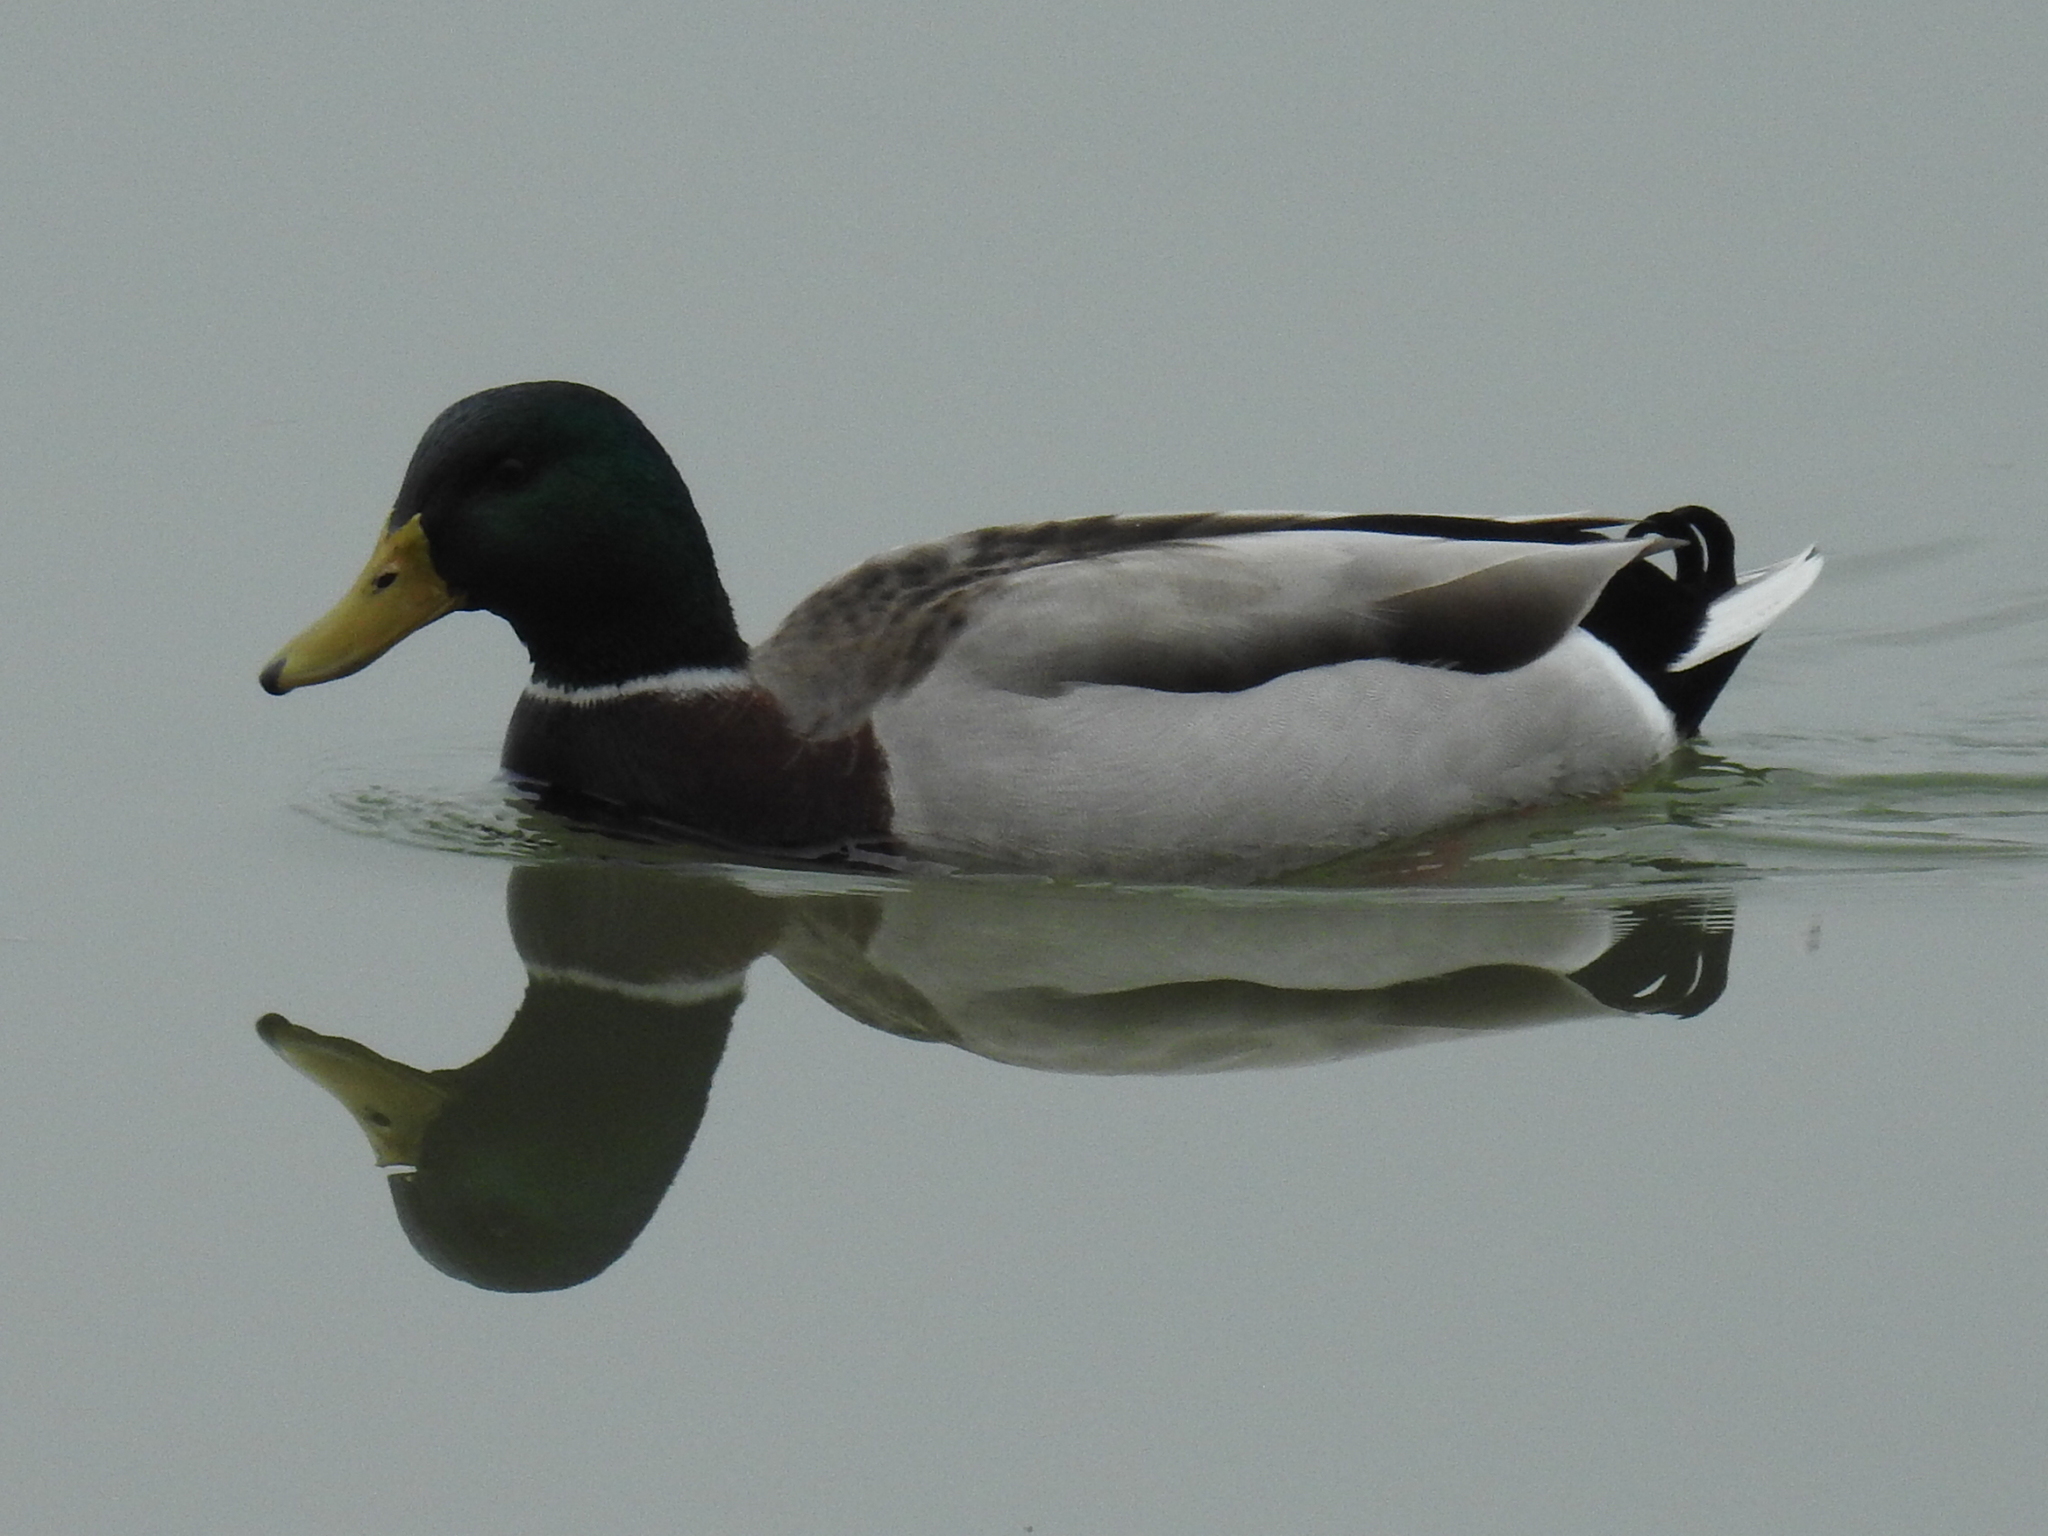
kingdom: Animalia
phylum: Chordata
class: Aves
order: Anseriformes
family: Anatidae
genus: Anas
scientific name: Anas platyrhynchos
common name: Mallard
